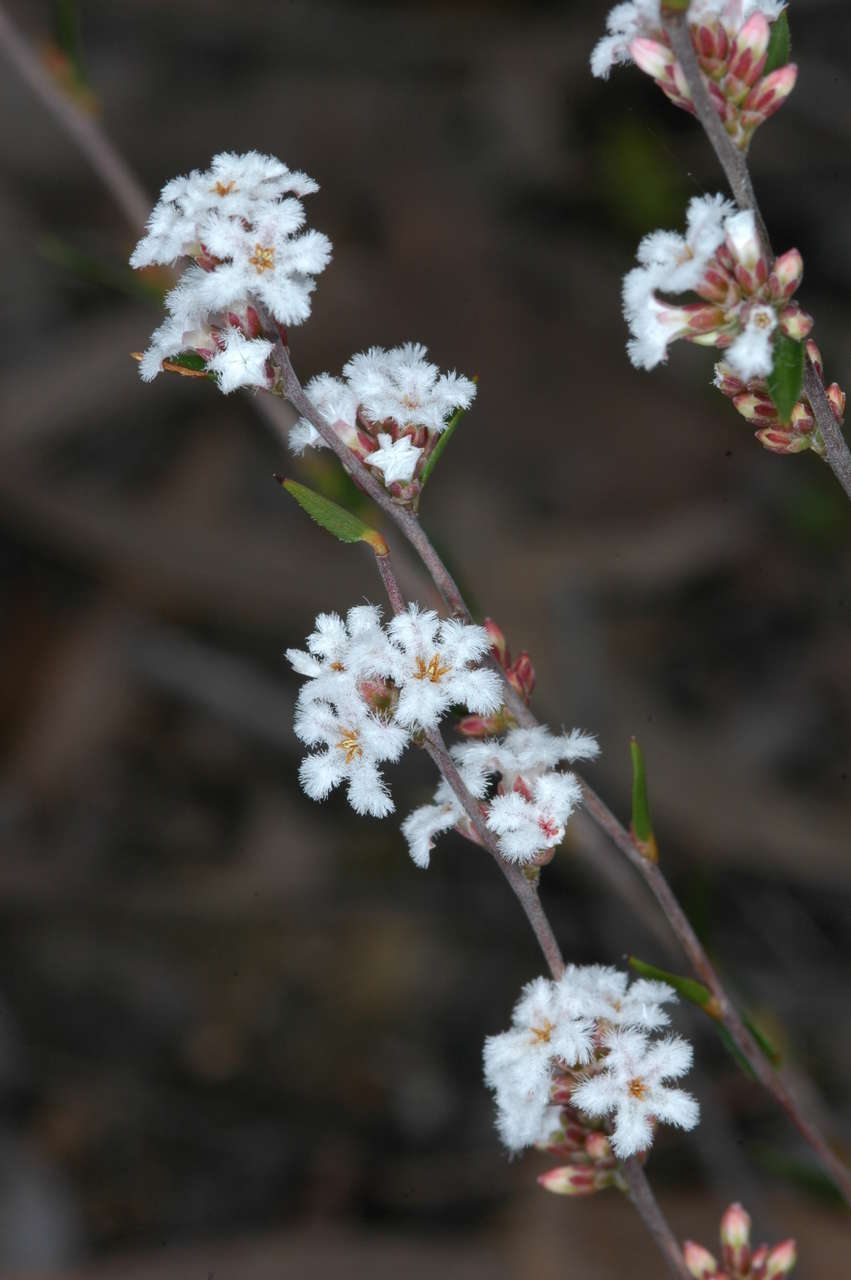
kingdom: Plantae
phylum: Tracheophyta
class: Magnoliopsida
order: Ericales
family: Ericaceae
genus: Leucopogon
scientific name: Leucopogon virgatus
